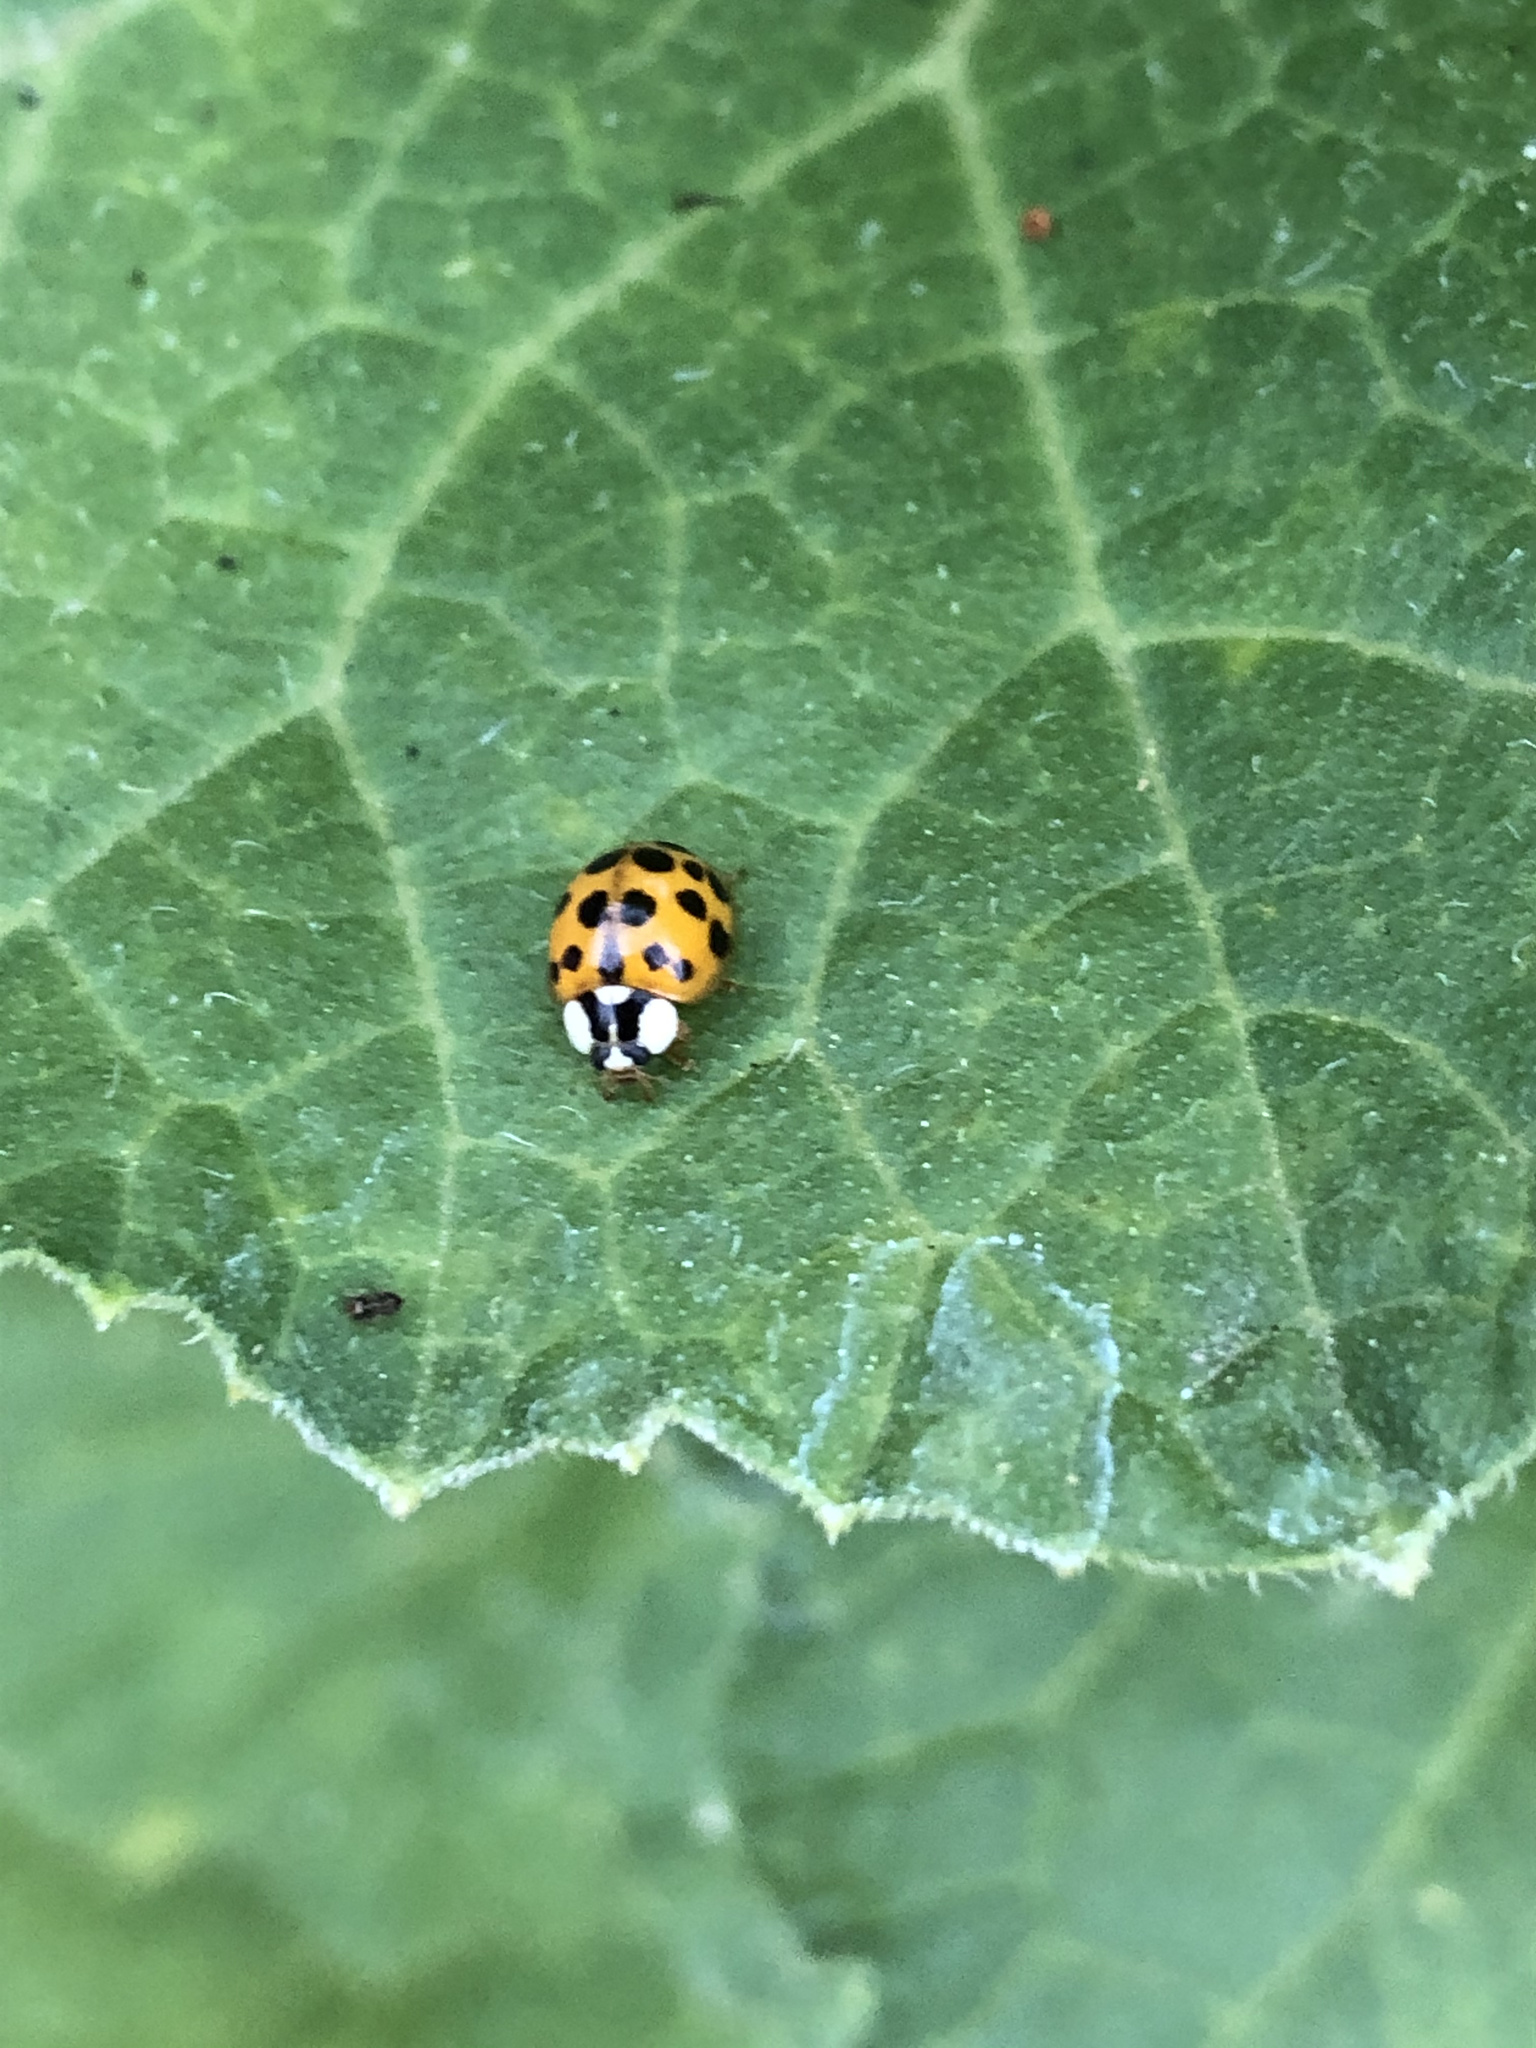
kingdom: Animalia
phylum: Arthropoda
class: Insecta
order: Coleoptera
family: Coccinellidae
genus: Harmonia
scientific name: Harmonia axyridis
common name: Harlequin ladybird
